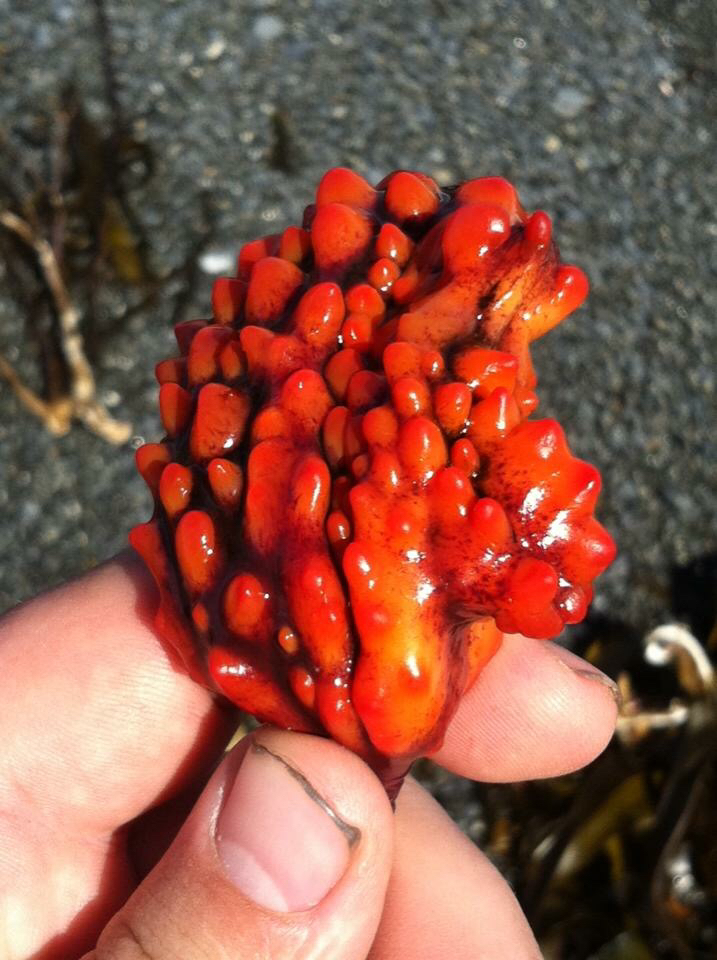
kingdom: Animalia
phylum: Chordata
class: Ascidiacea
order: Stolidobranchia
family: Pyuridae
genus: Pyura
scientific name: Pyura pachydermatina
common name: Sea tulip
